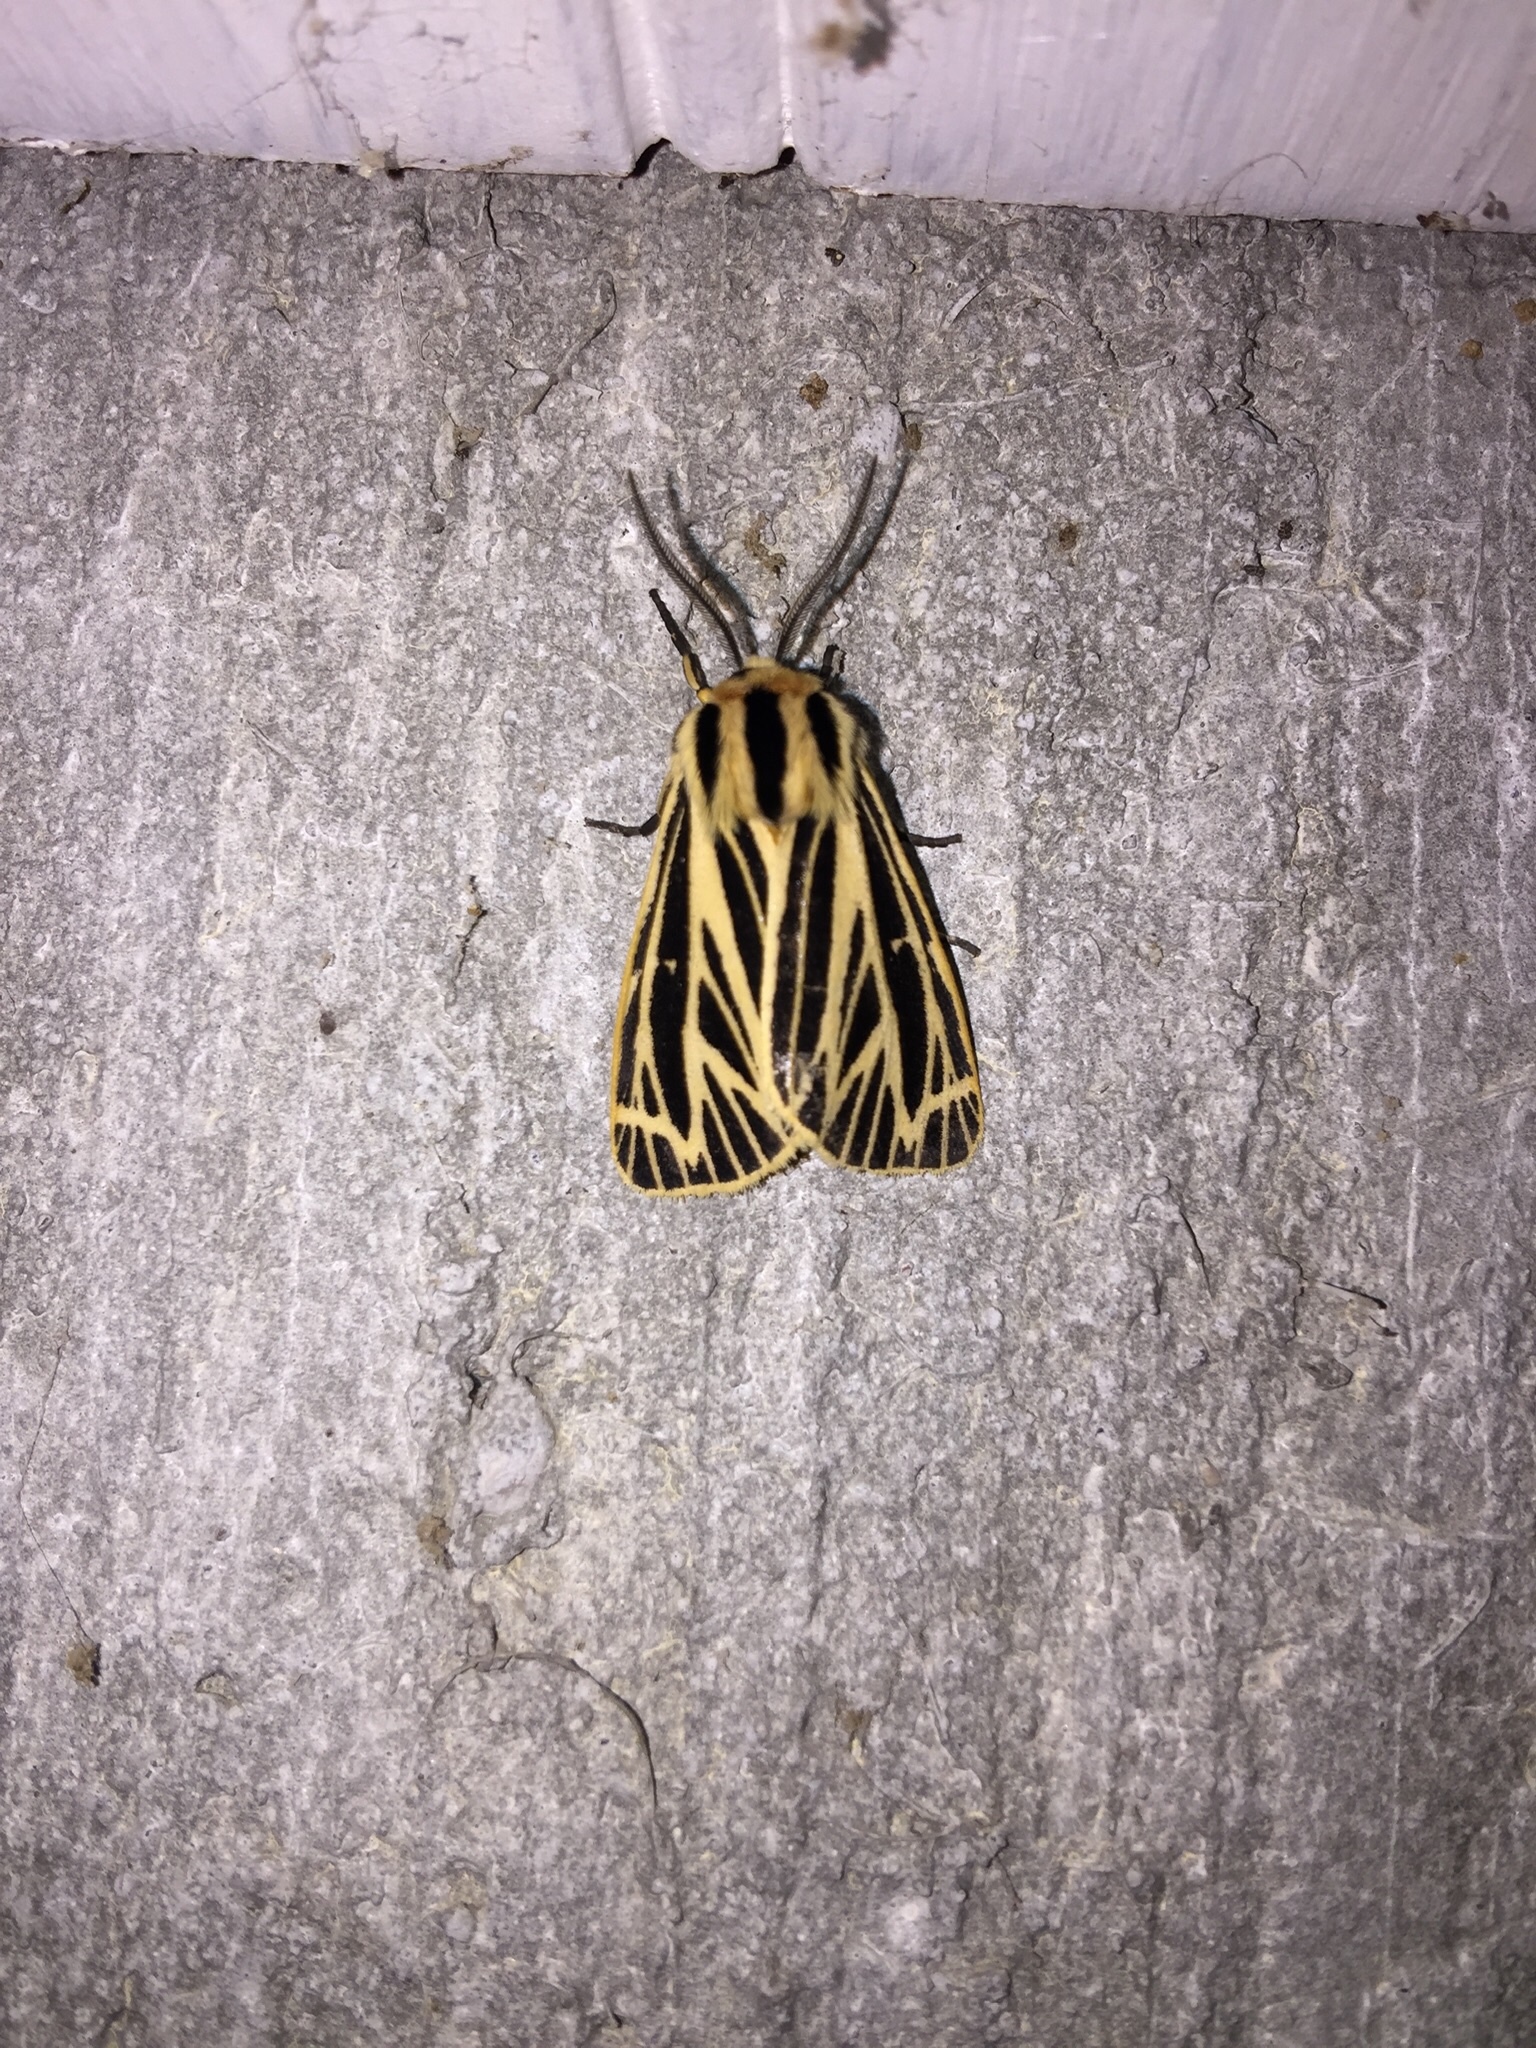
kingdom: Animalia
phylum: Arthropoda
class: Insecta
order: Lepidoptera
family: Erebidae
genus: Grammia
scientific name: Grammia virguncula
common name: Little tiger moth
